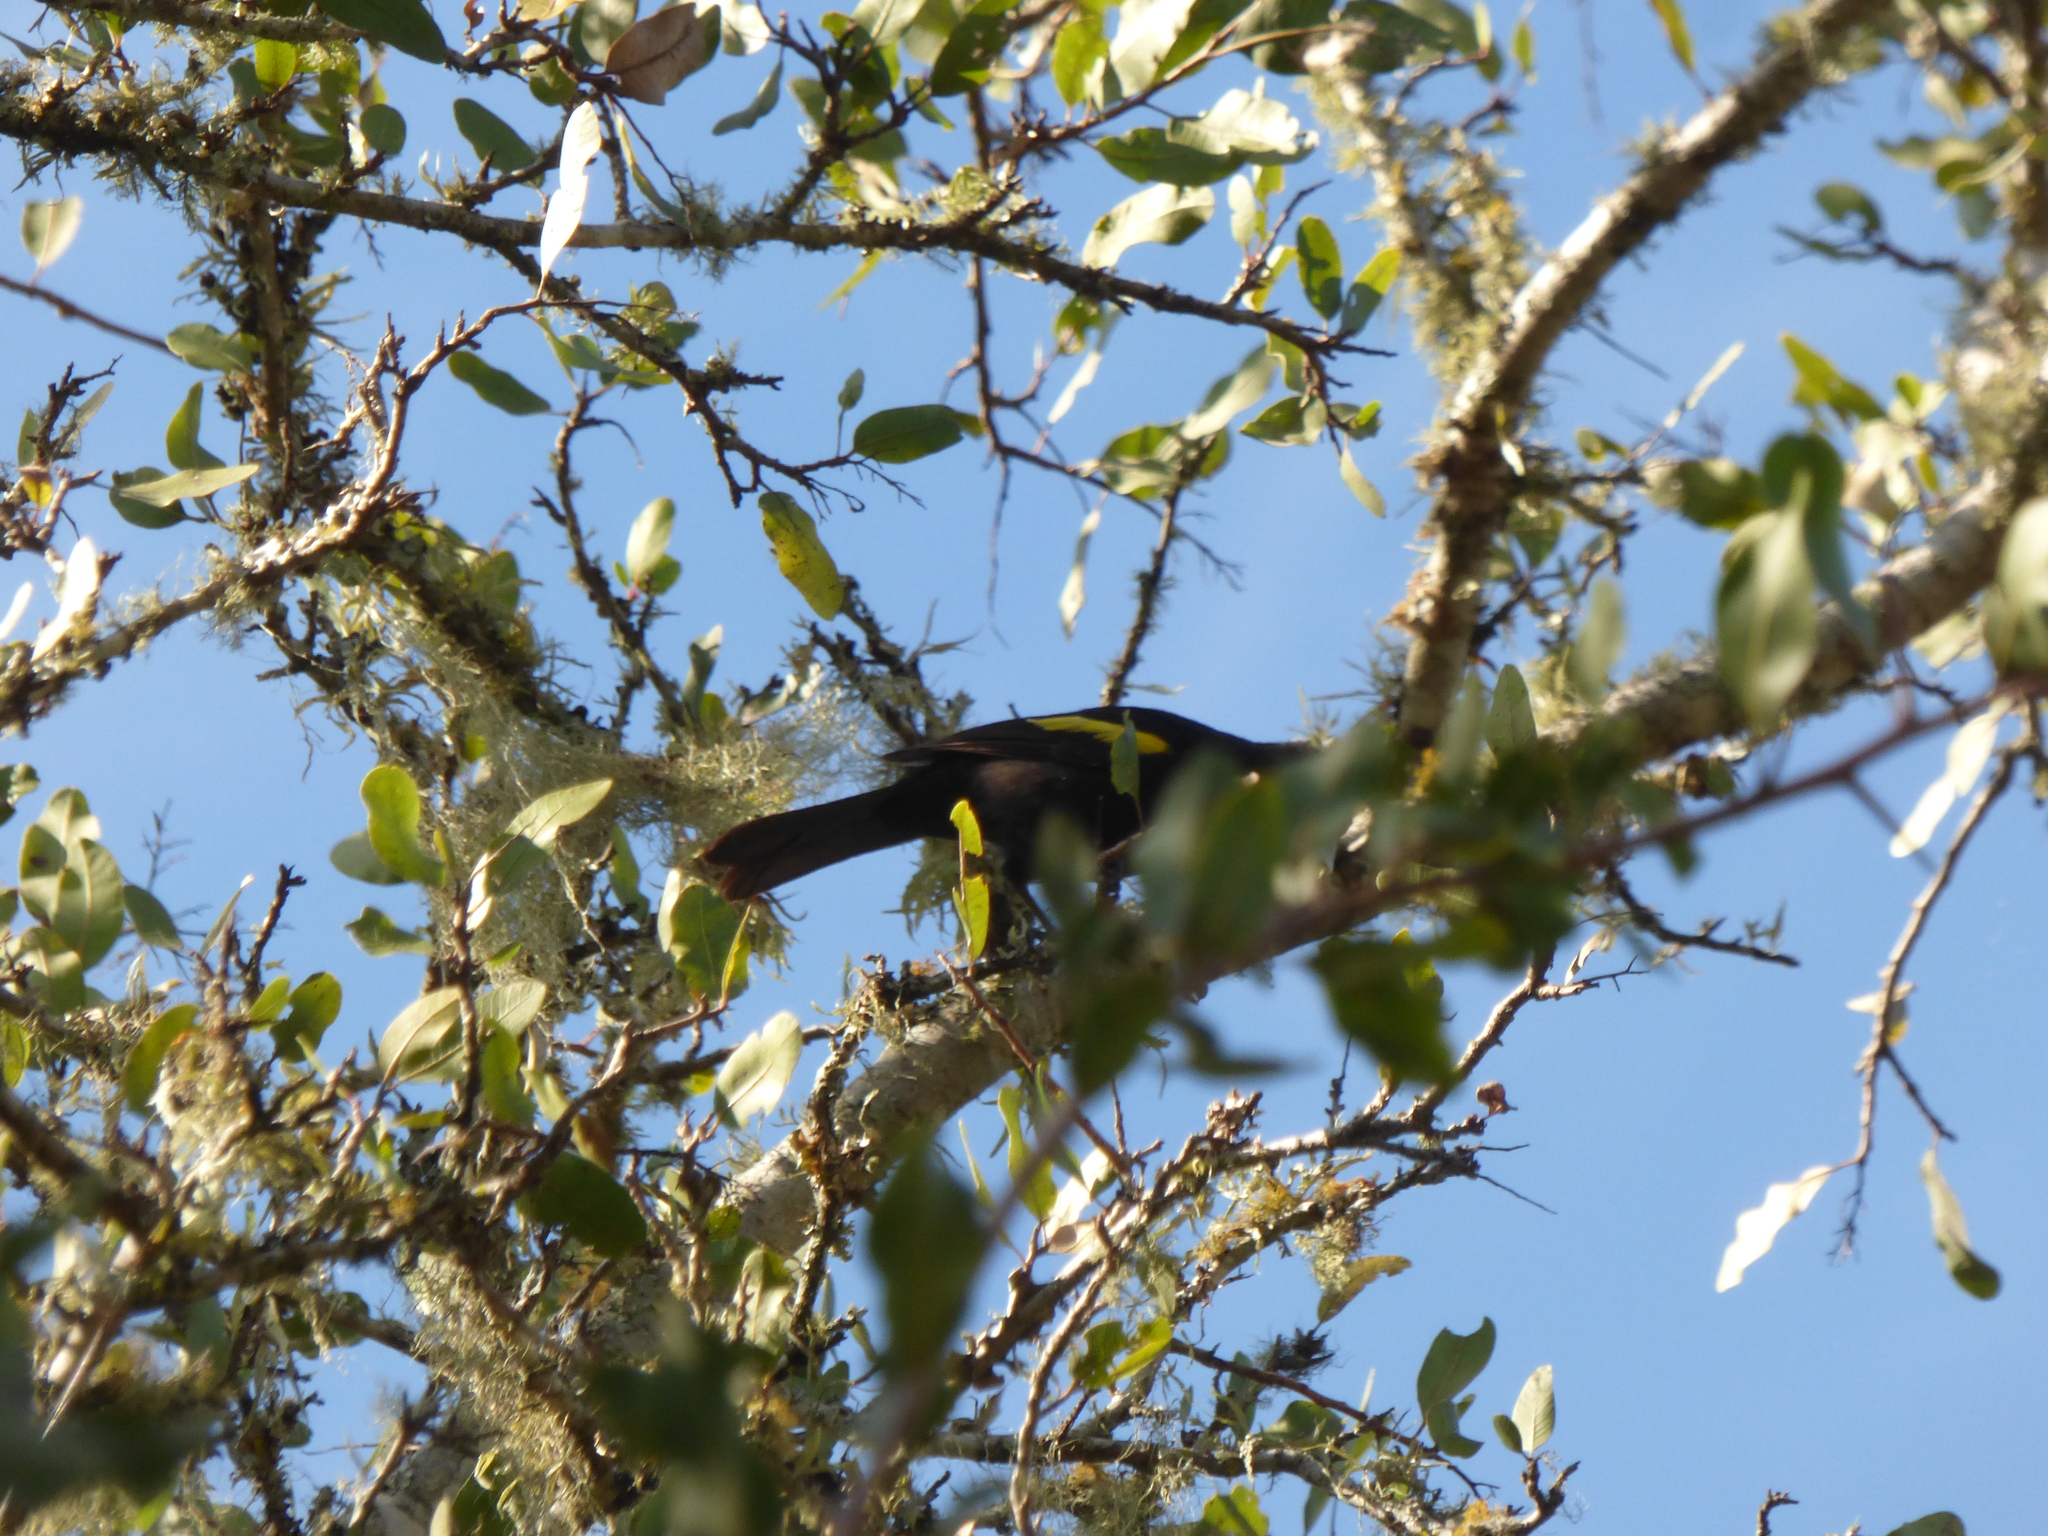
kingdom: Animalia
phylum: Chordata
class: Aves
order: Passeriformes
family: Icteridae
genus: Cacicus
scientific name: Cacicus chrysopterus
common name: Golden-winged cacique
